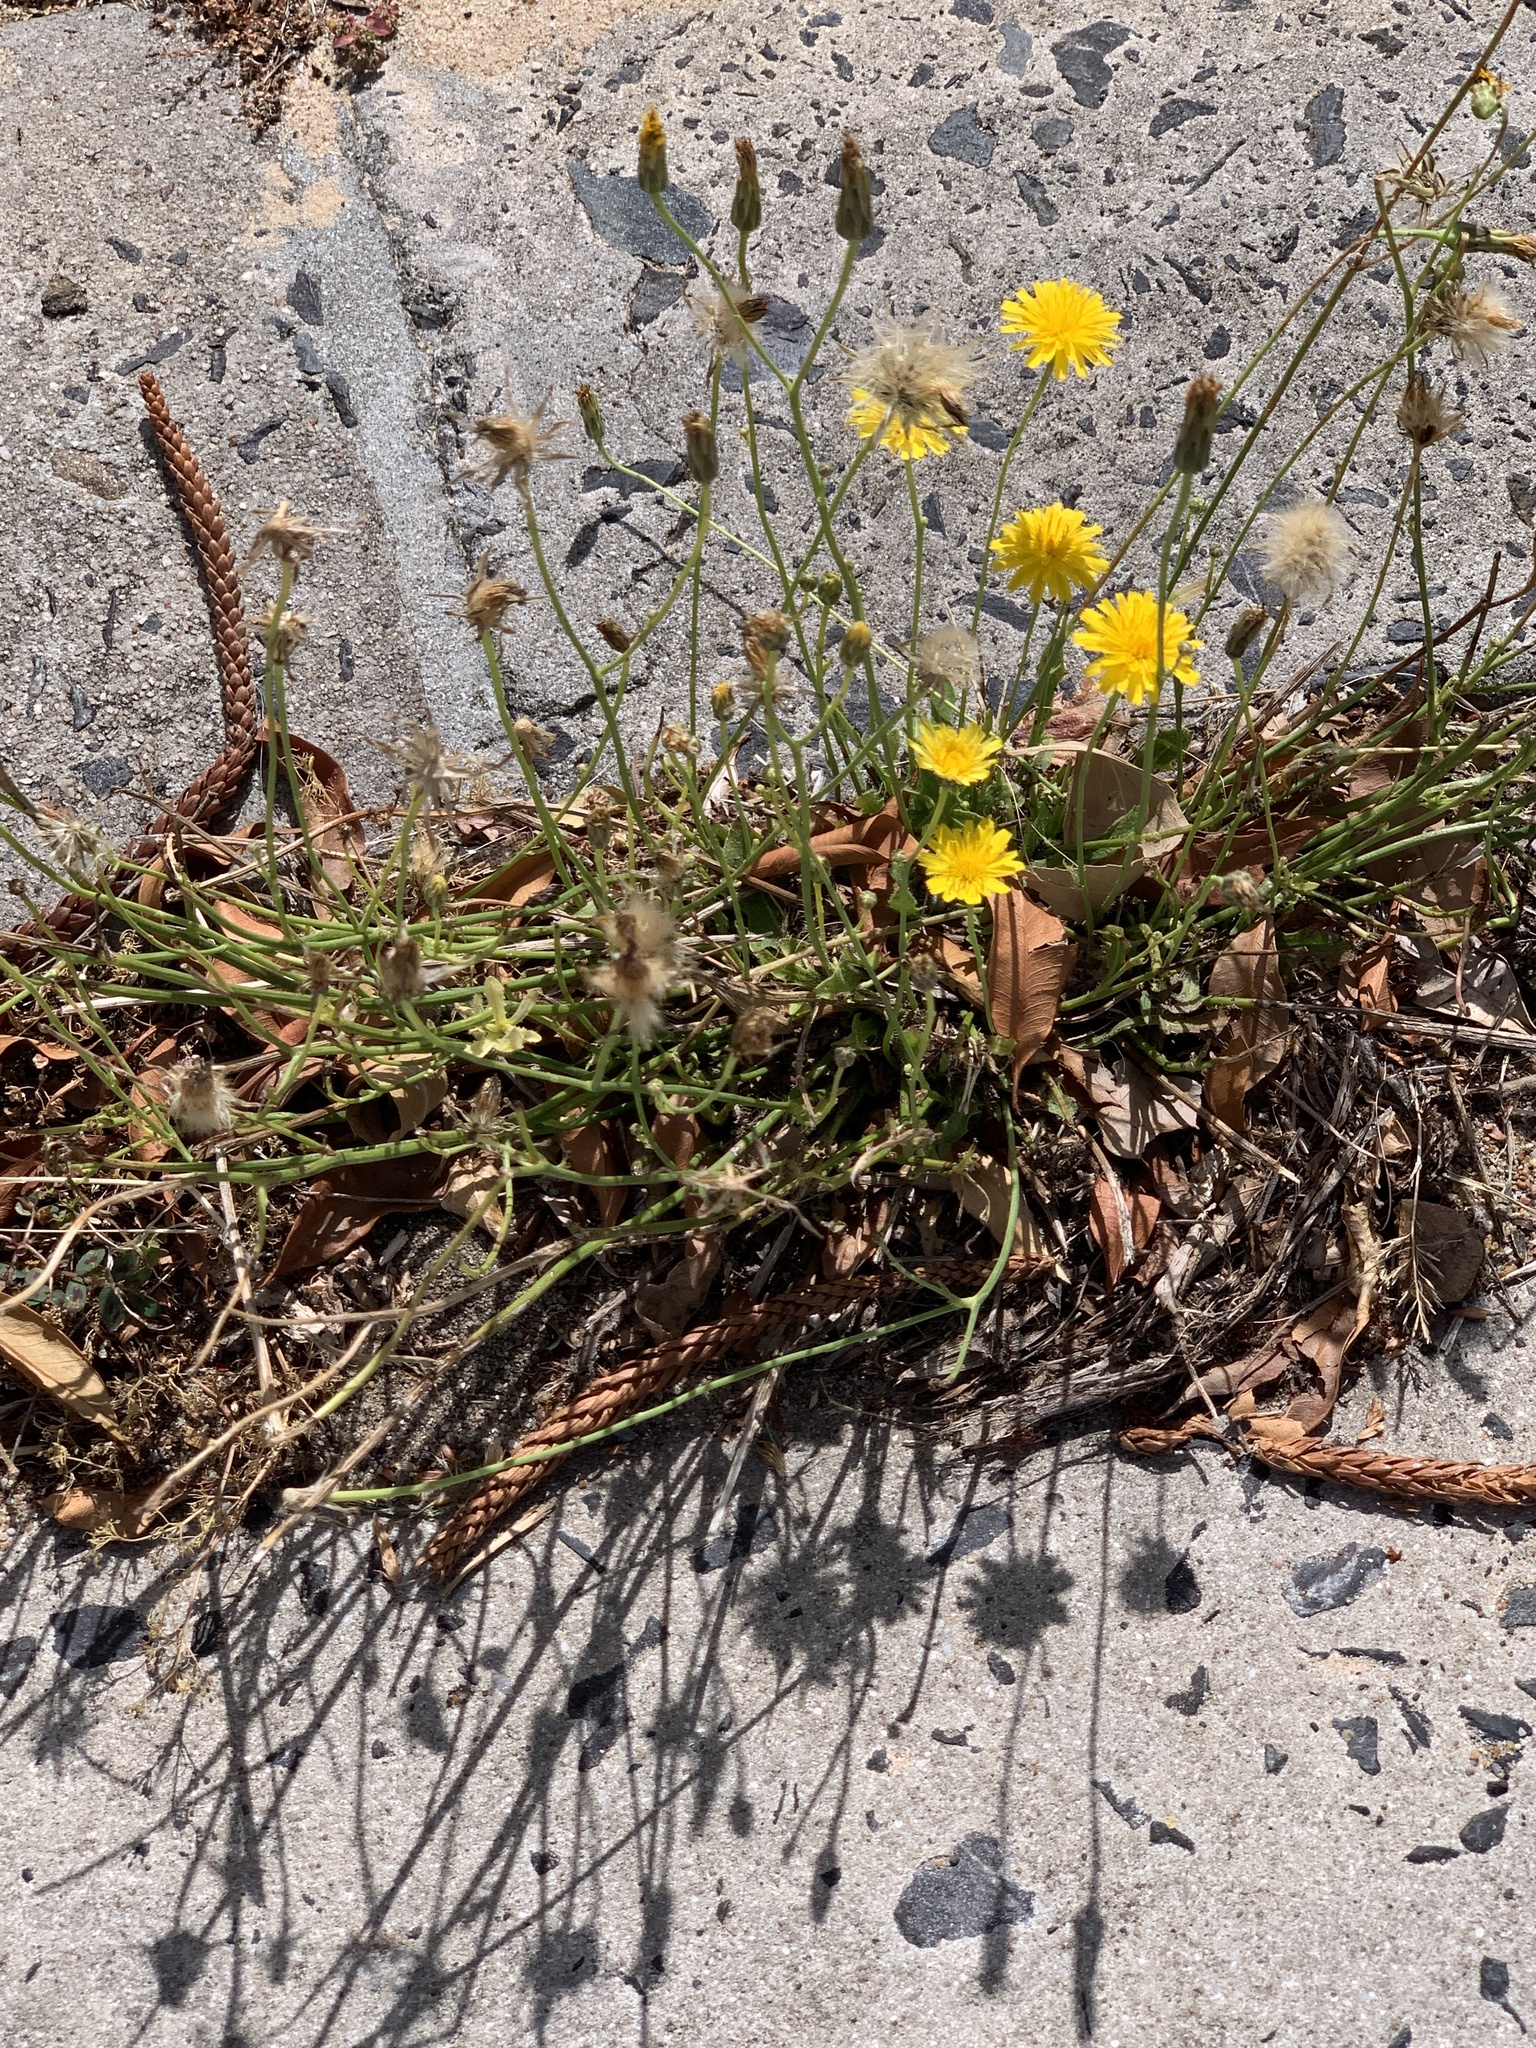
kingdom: Plantae
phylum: Tracheophyta
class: Magnoliopsida
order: Asterales
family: Asteraceae
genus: Hypochaeris
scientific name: Hypochaeris radicata
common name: Flatweed
